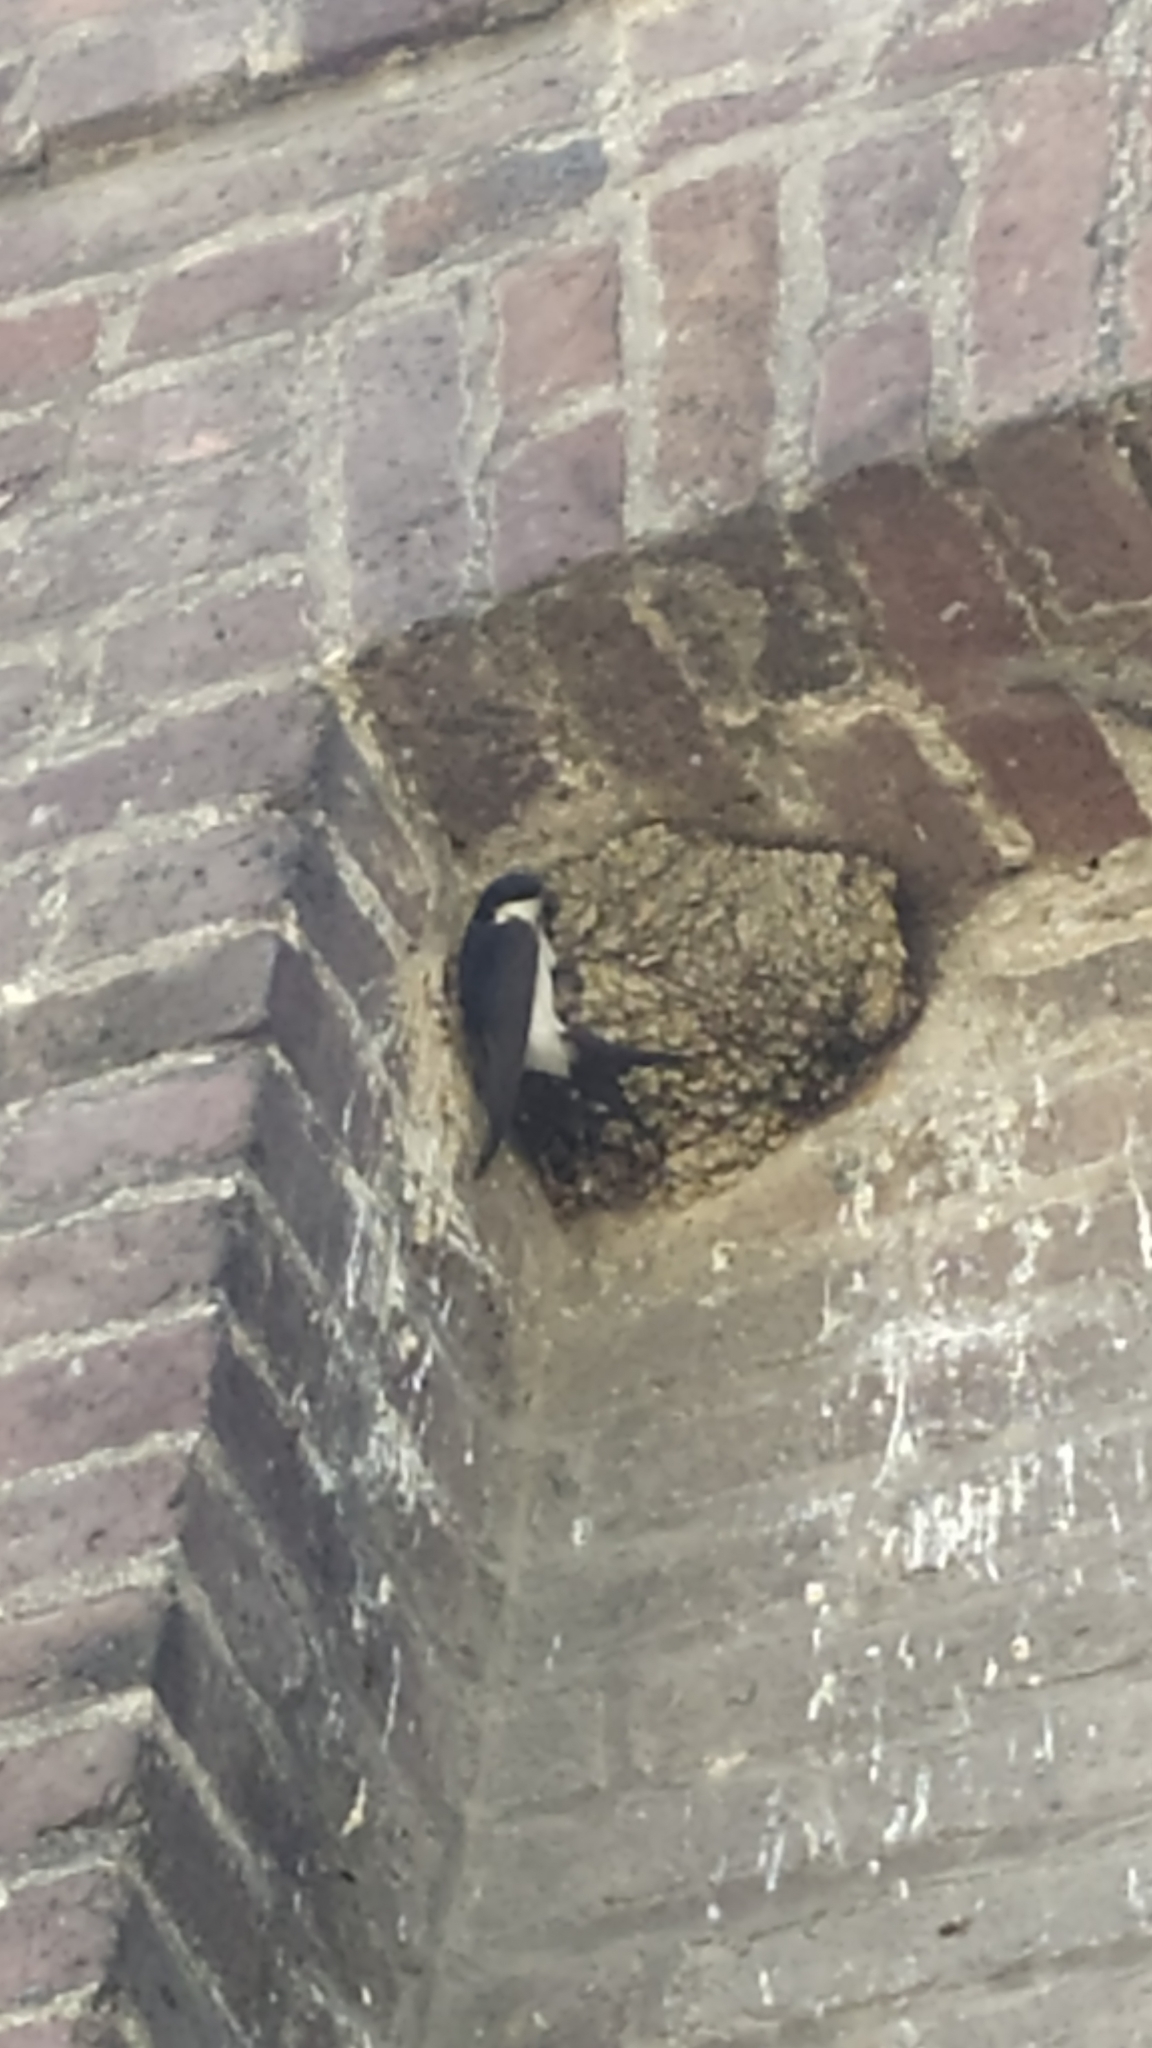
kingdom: Animalia
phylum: Chordata
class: Aves
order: Passeriformes
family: Hirundinidae
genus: Delichon
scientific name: Delichon urbicum
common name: Common house martin
